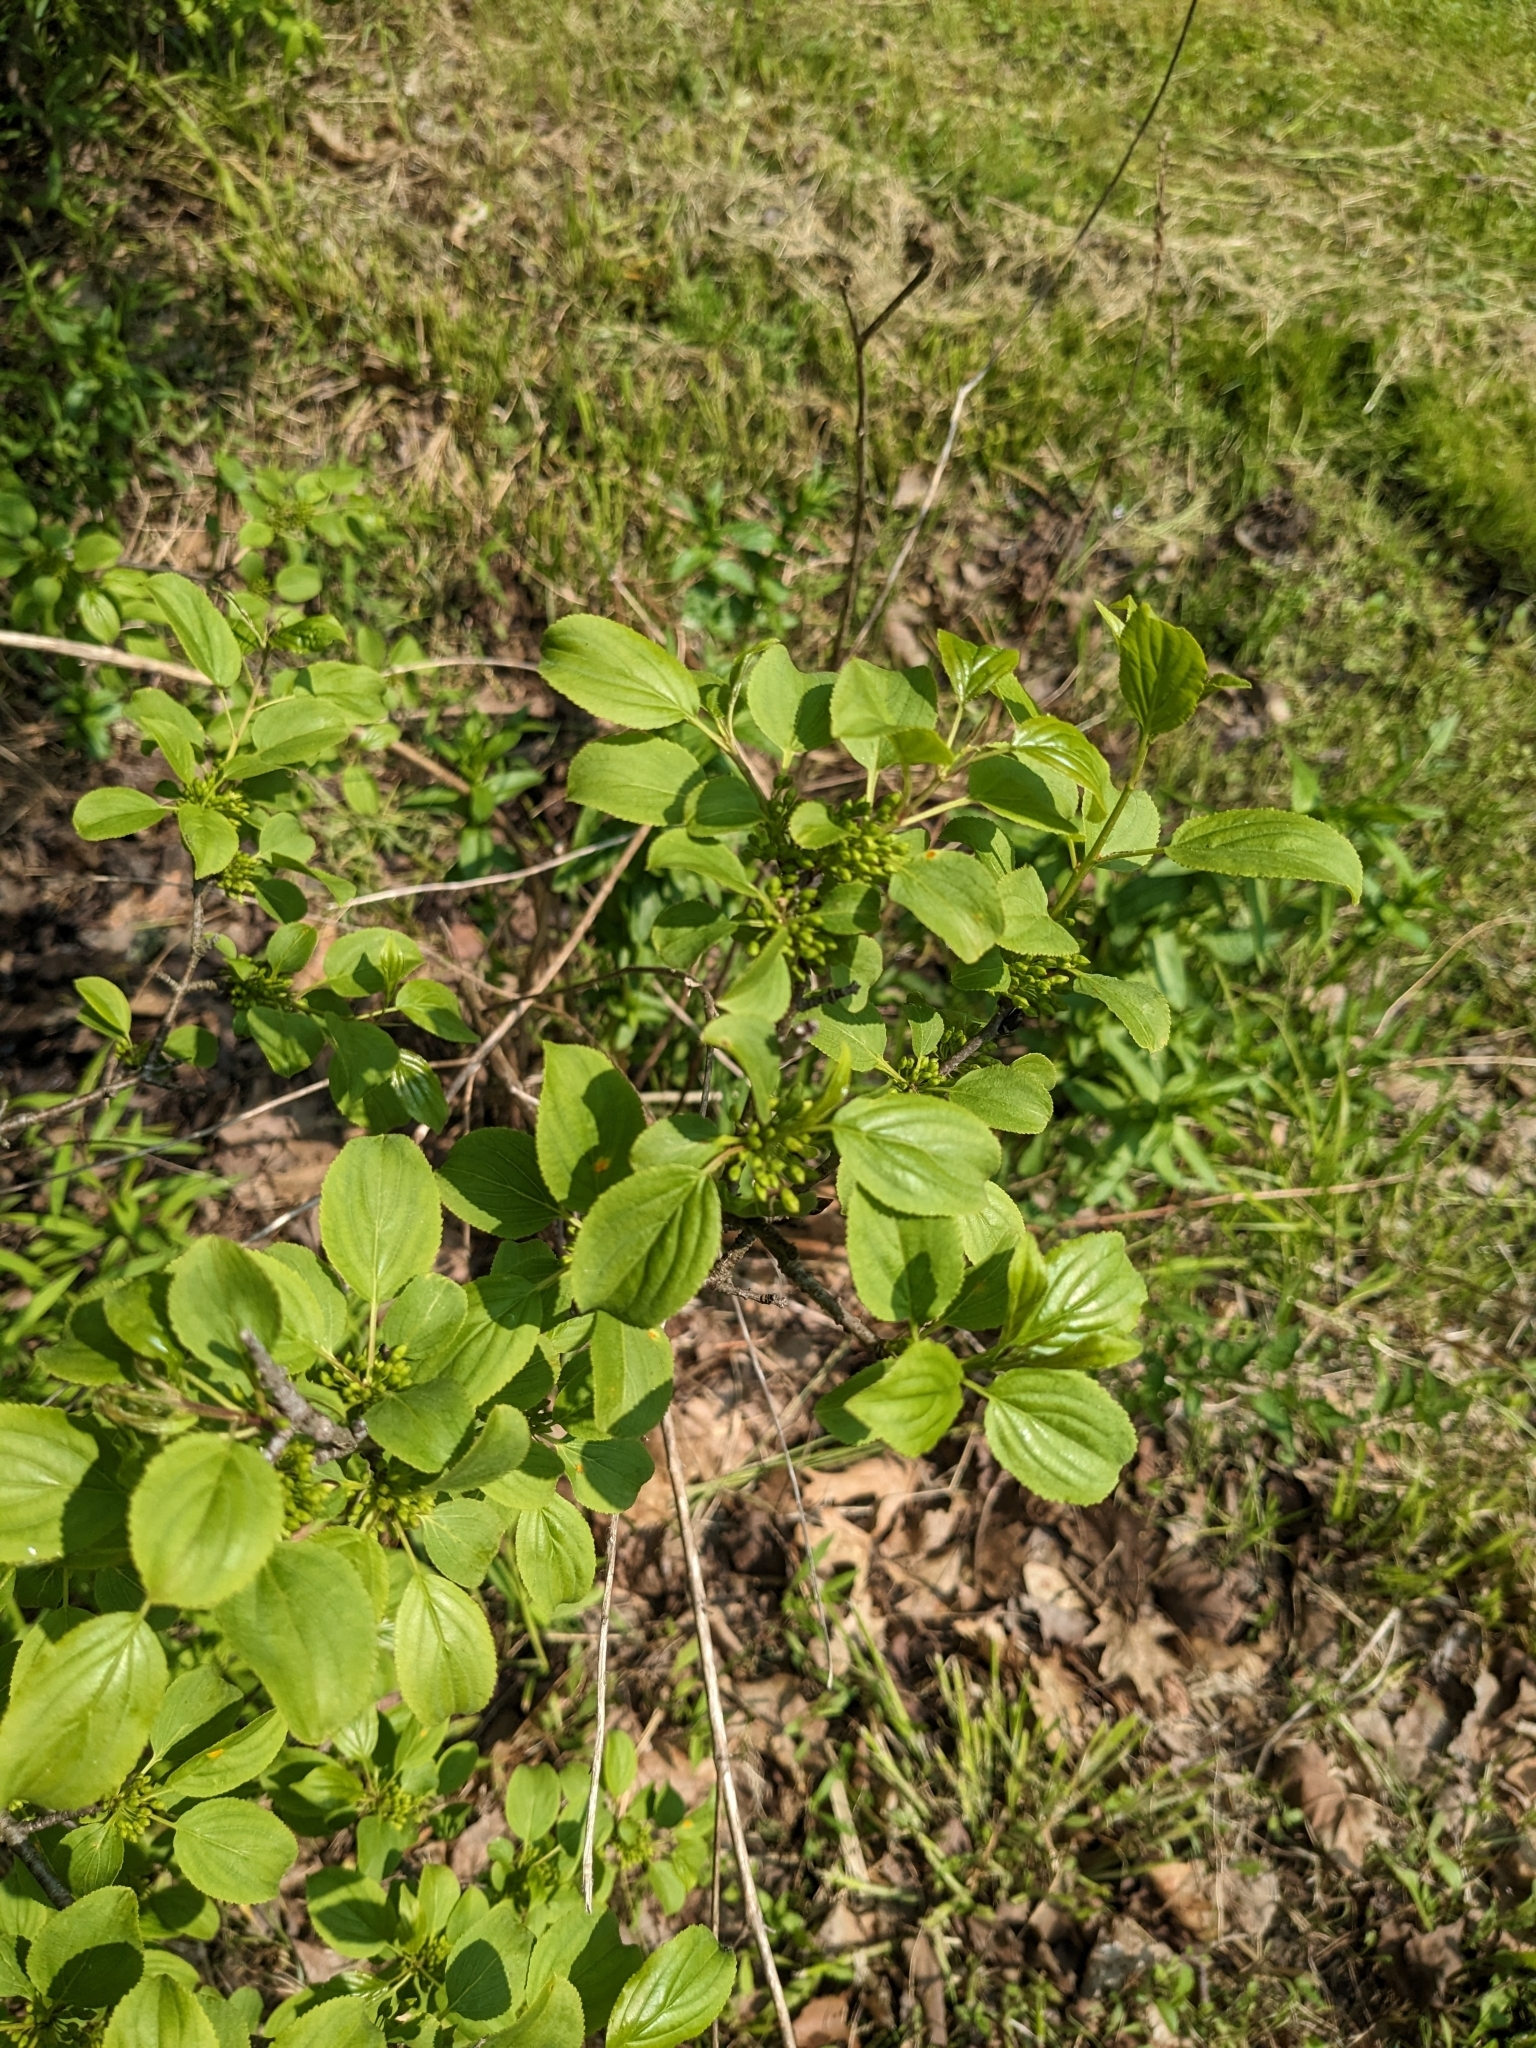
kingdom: Plantae
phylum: Tracheophyta
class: Magnoliopsida
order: Rosales
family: Rhamnaceae
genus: Rhamnus
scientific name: Rhamnus cathartica
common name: Common buckthorn
